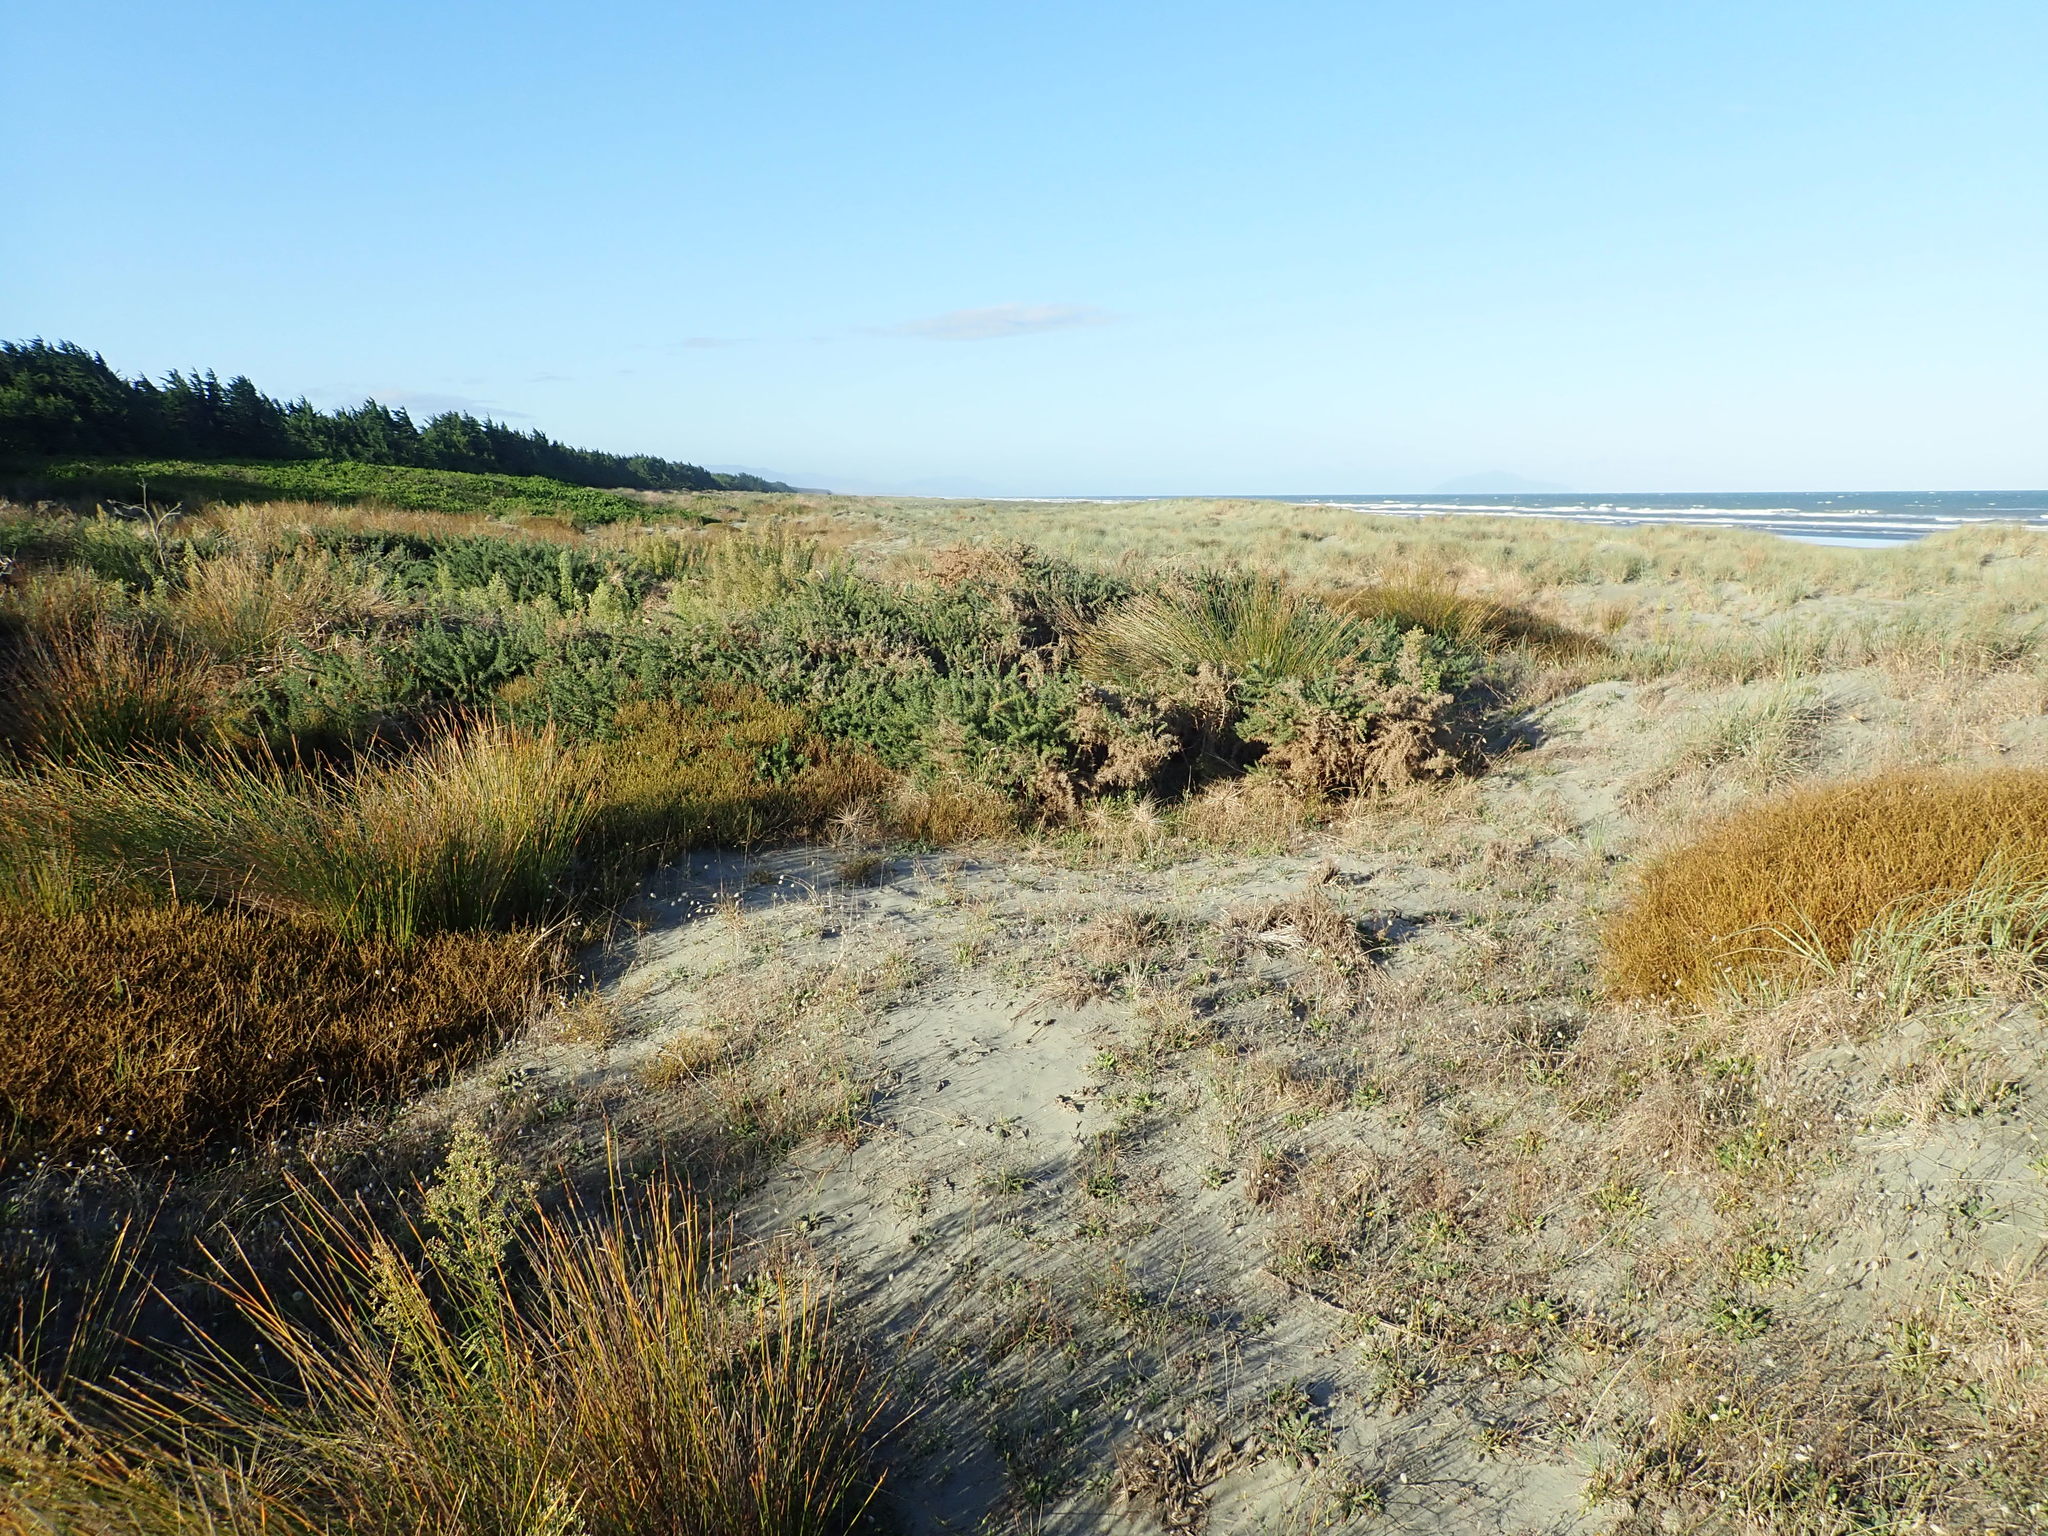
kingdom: Plantae
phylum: Tracheophyta
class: Magnoliopsida
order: Fabales
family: Fabaceae
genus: Ulex
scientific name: Ulex europaeus
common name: Common gorse
